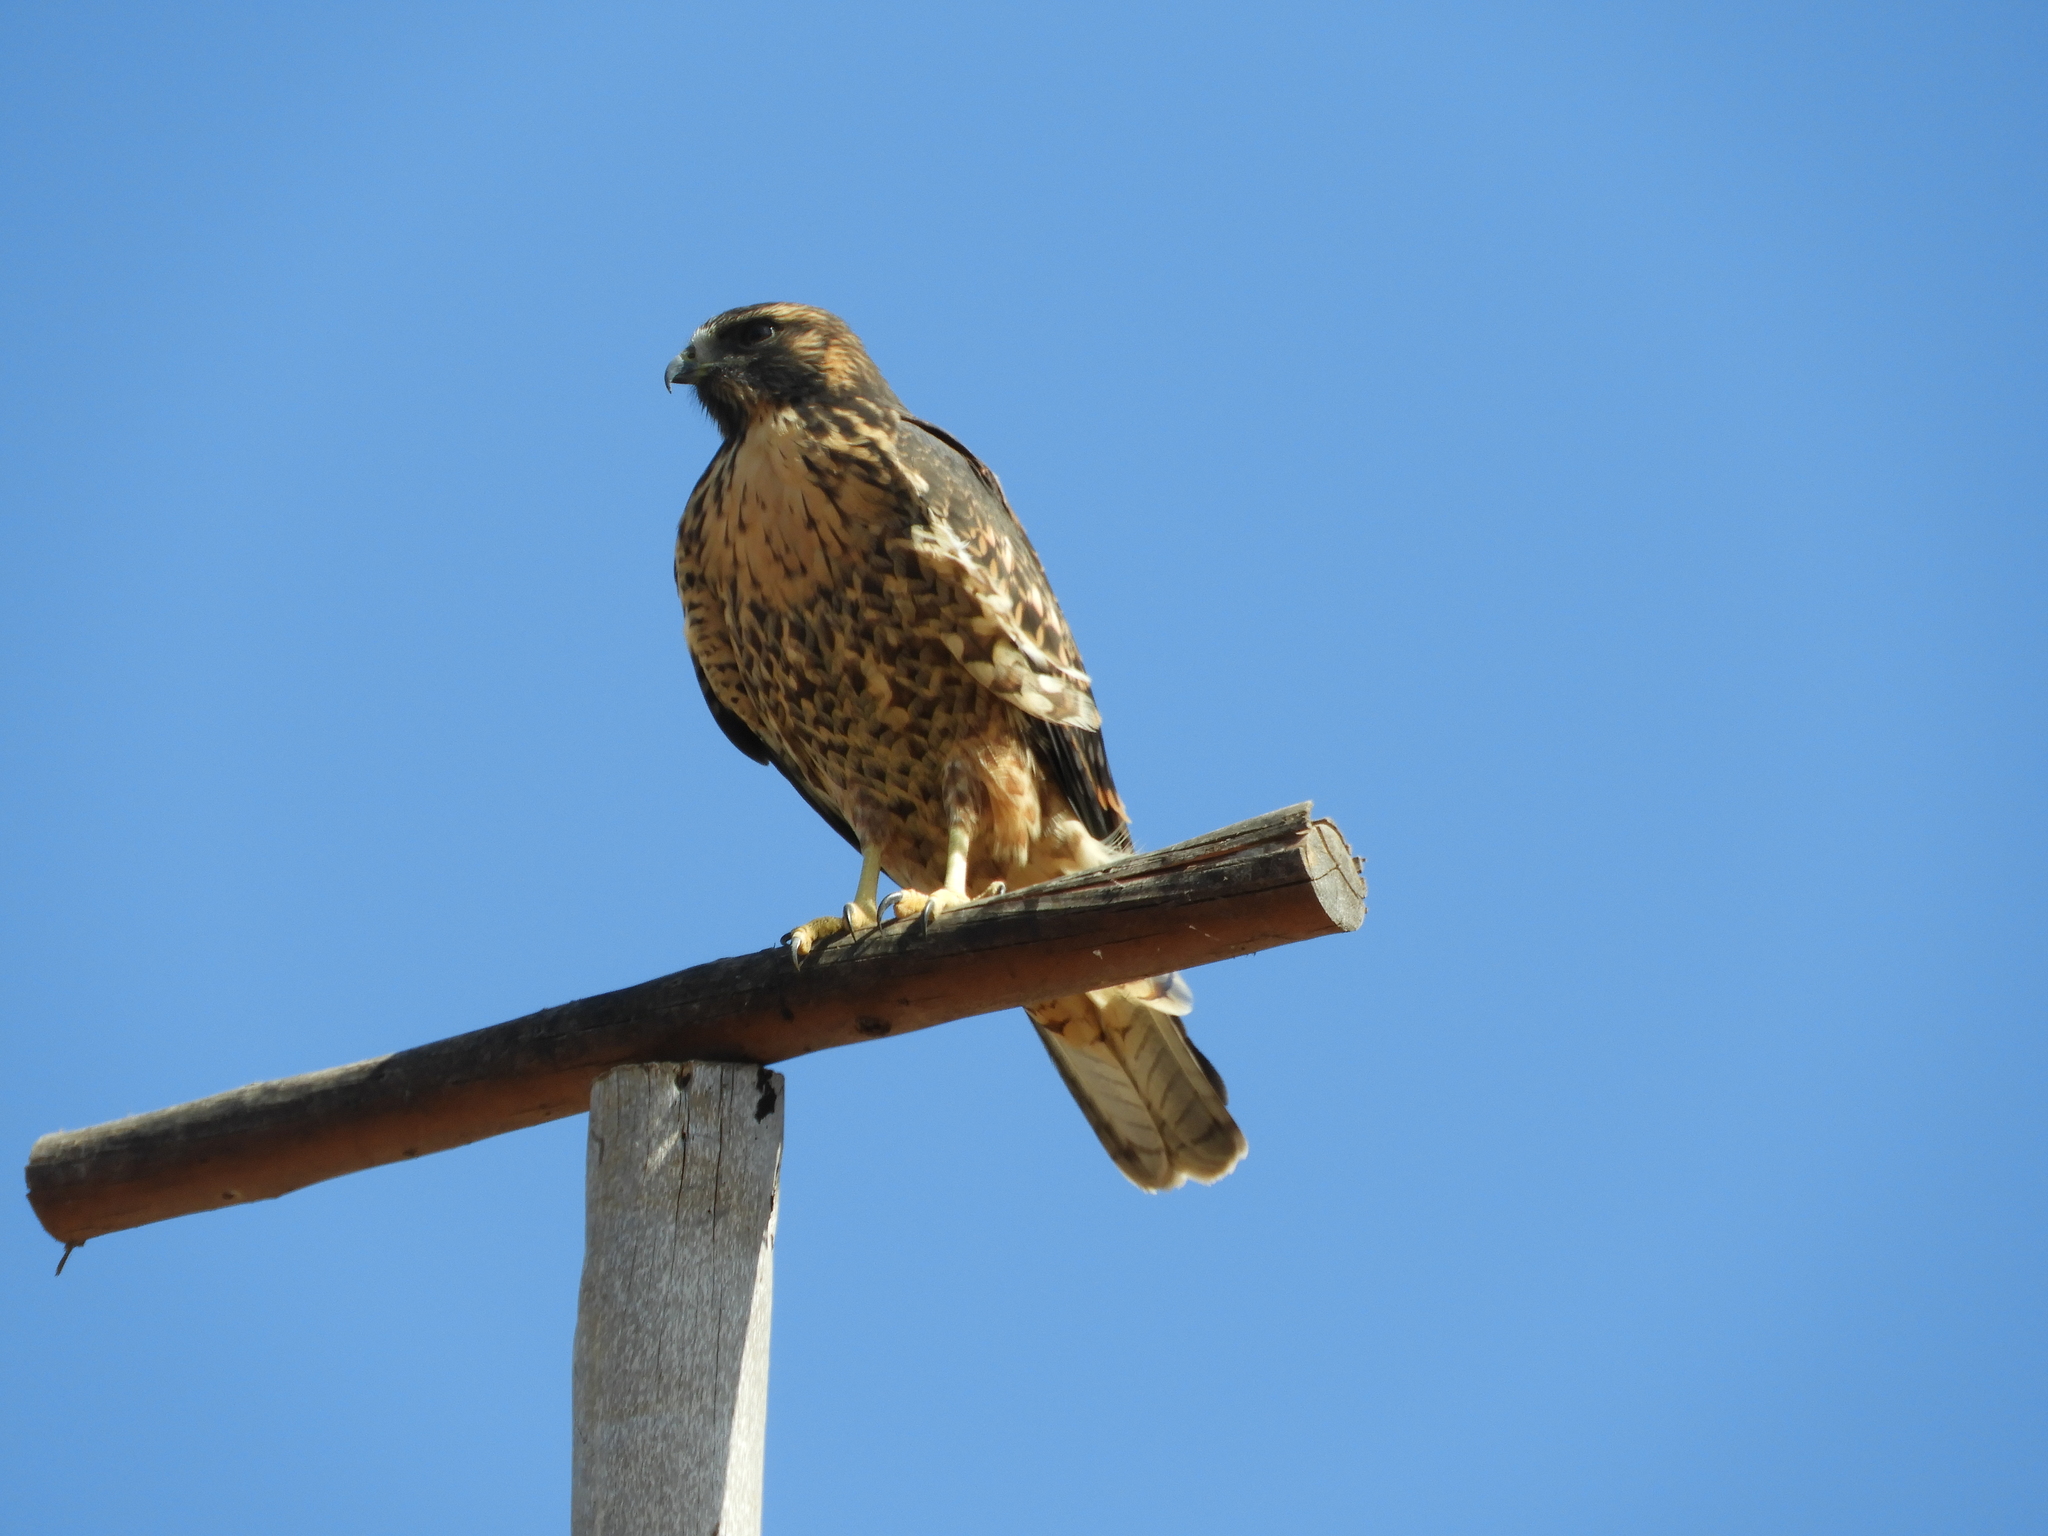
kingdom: Animalia
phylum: Chordata
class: Aves
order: Accipitriformes
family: Accipitridae
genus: Buteo
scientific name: Buteo polyosoma
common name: Variable hawk
